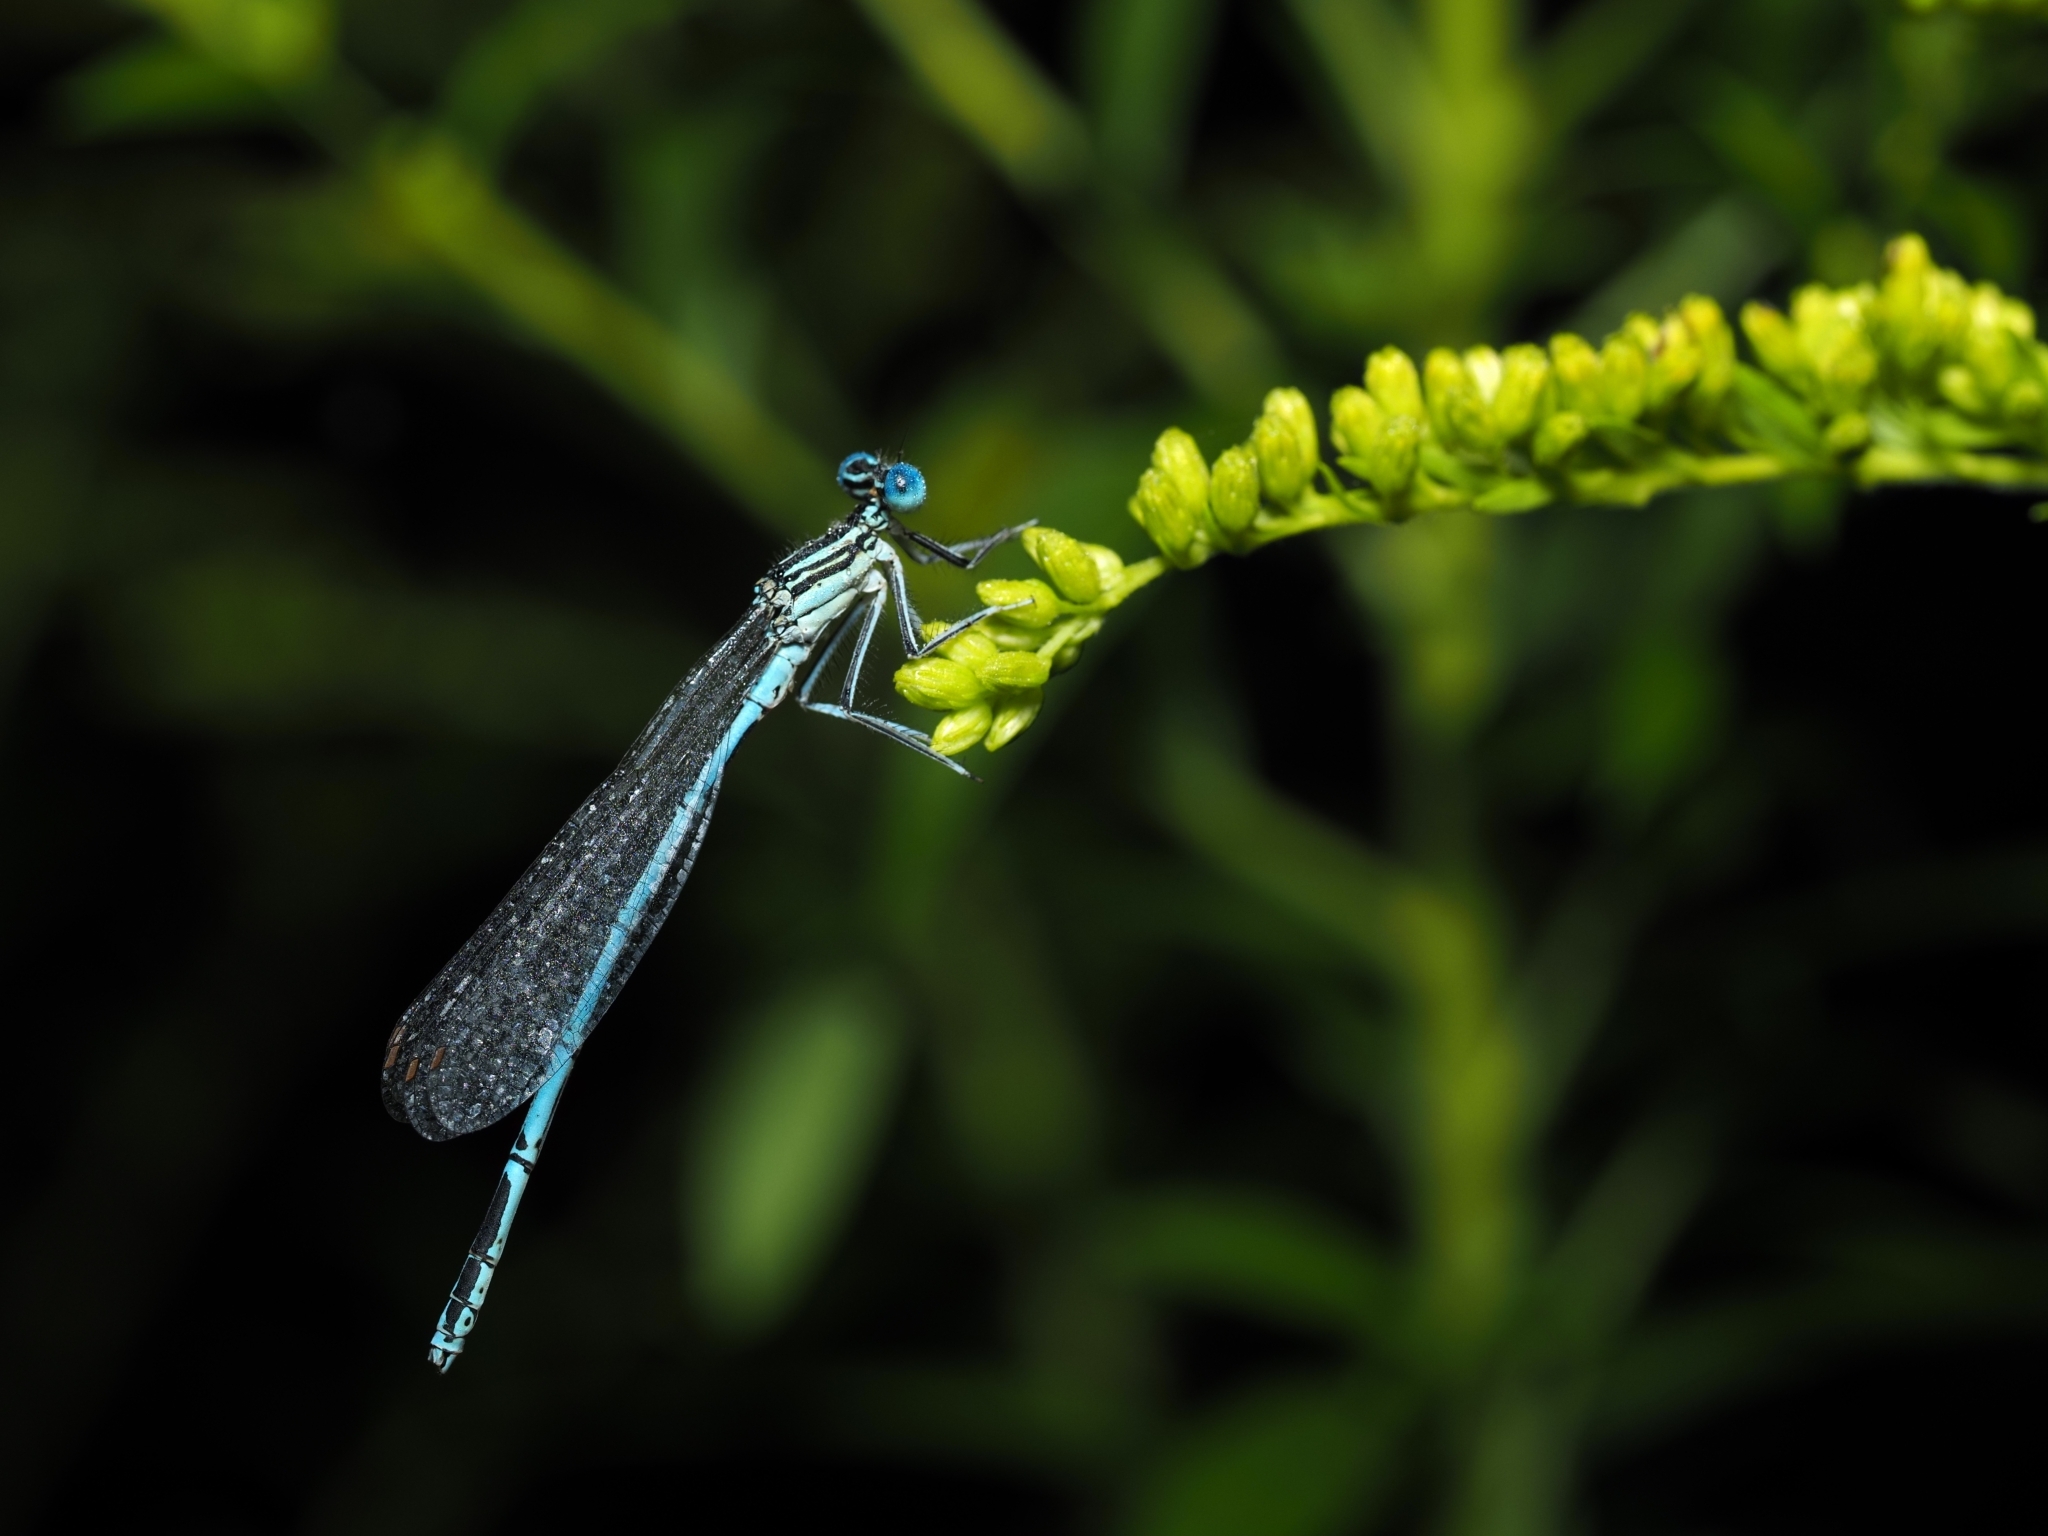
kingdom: Animalia
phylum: Arthropoda
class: Insecta
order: Odonata
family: Platycnemididae
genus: Platycnemis
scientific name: Platycnemis pennipes
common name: White-legged damselfly
